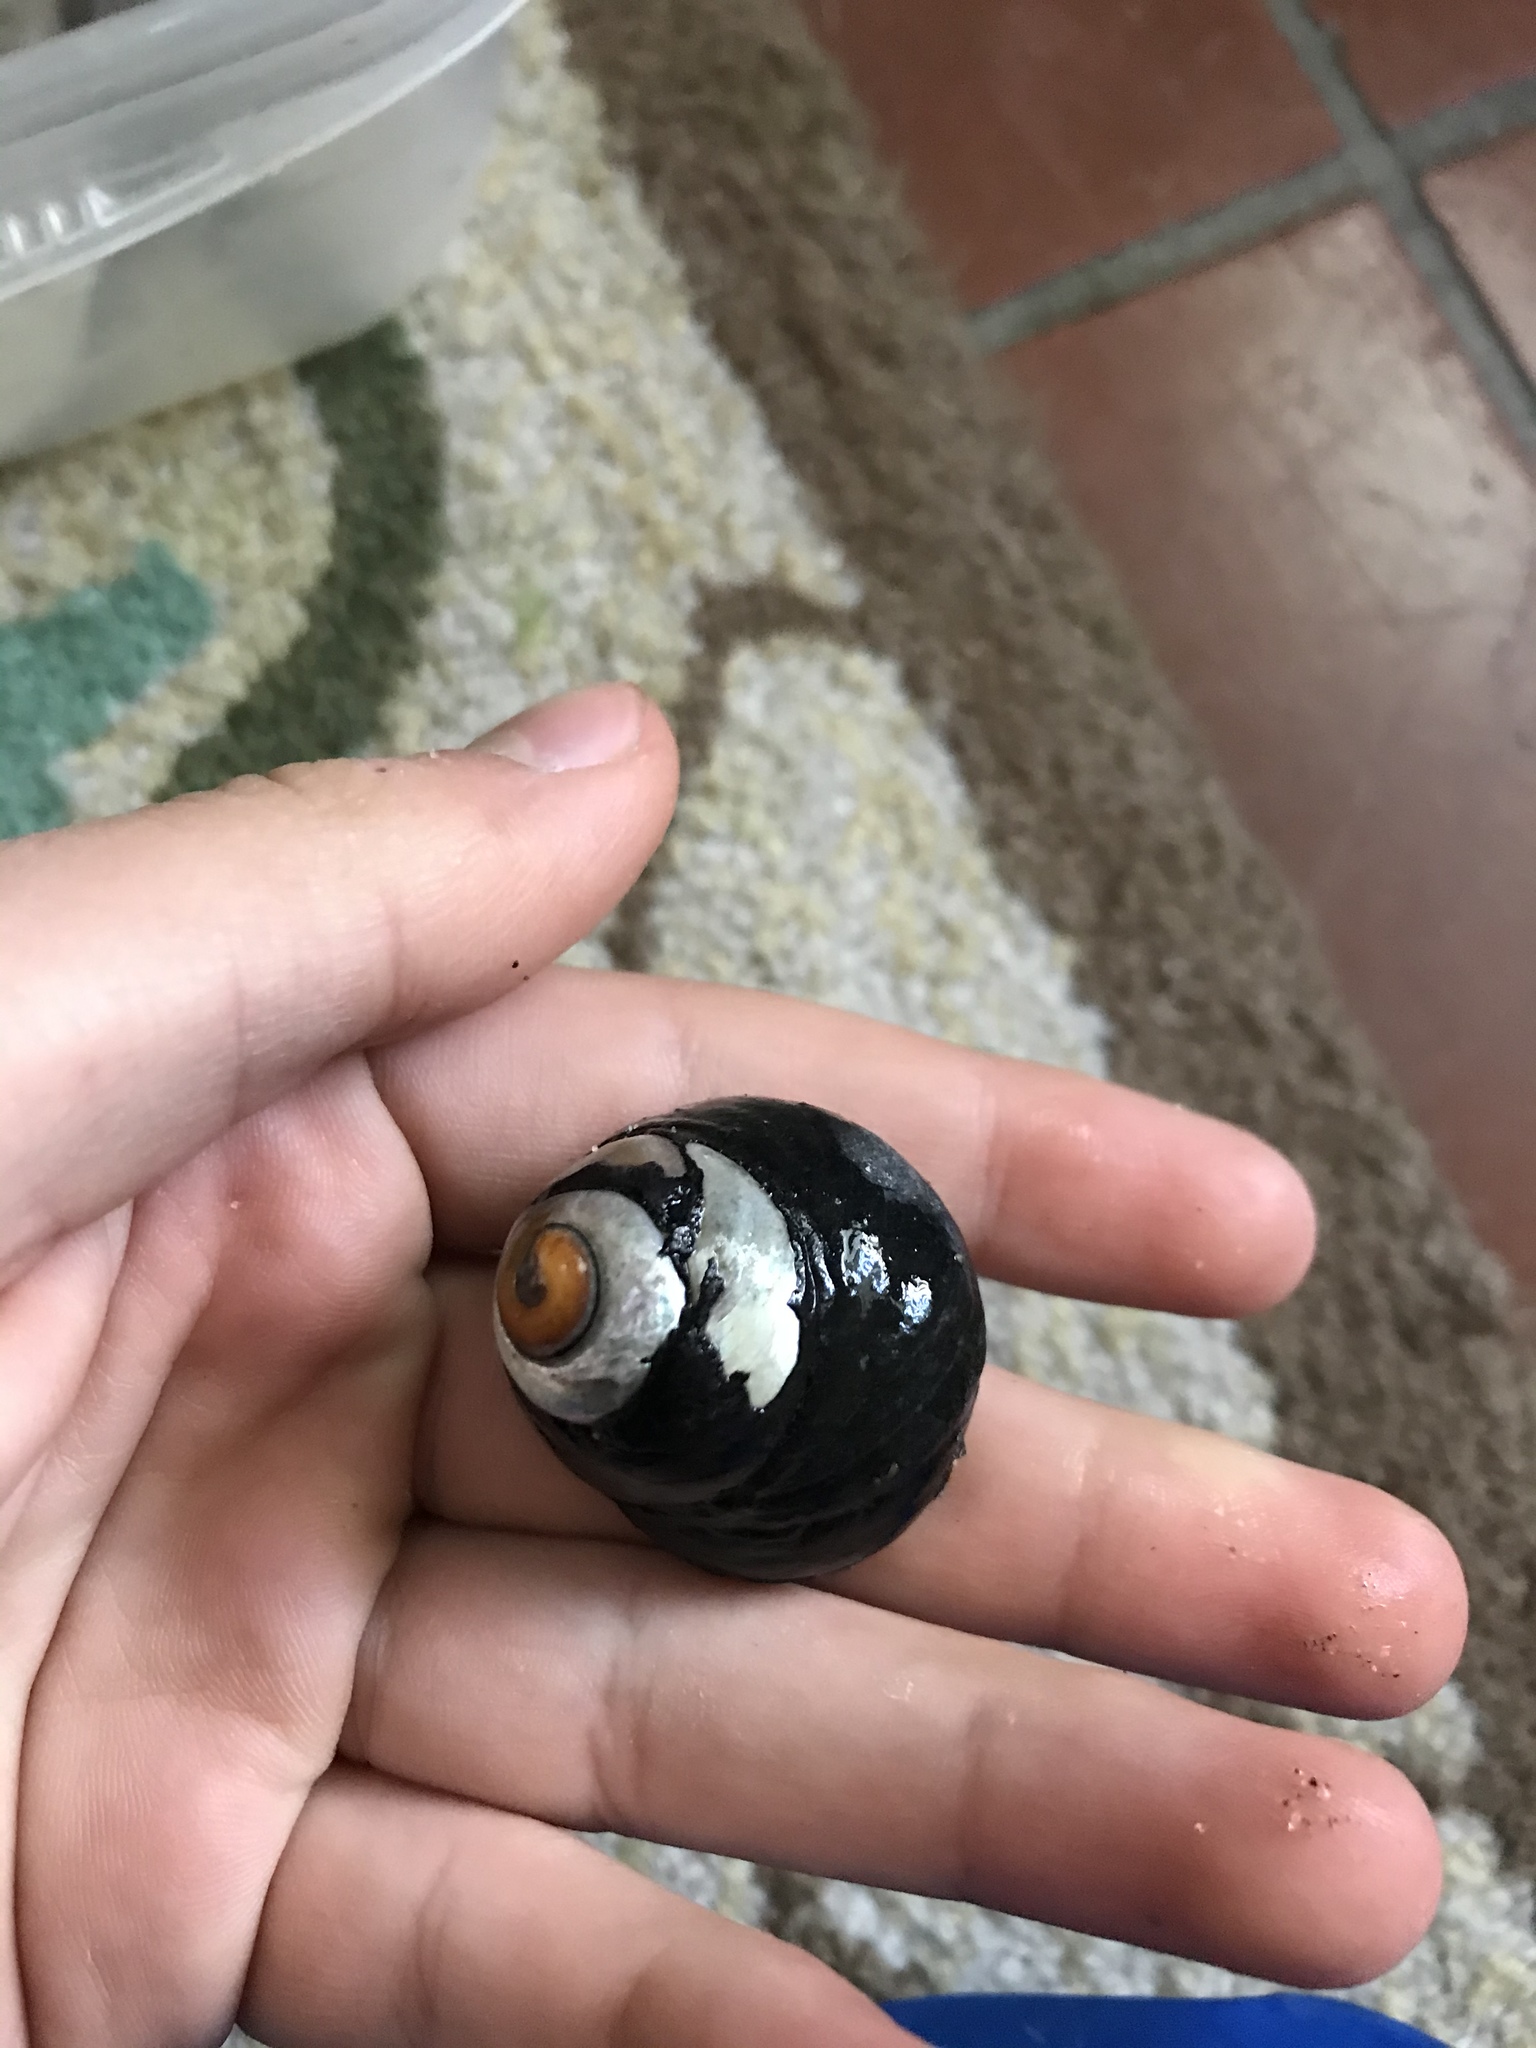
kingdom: Animalia
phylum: Mollusca
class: Gastropoda
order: Trochida
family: Tegulidae
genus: Tegula
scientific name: Tegula funebralis
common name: Black tegula
